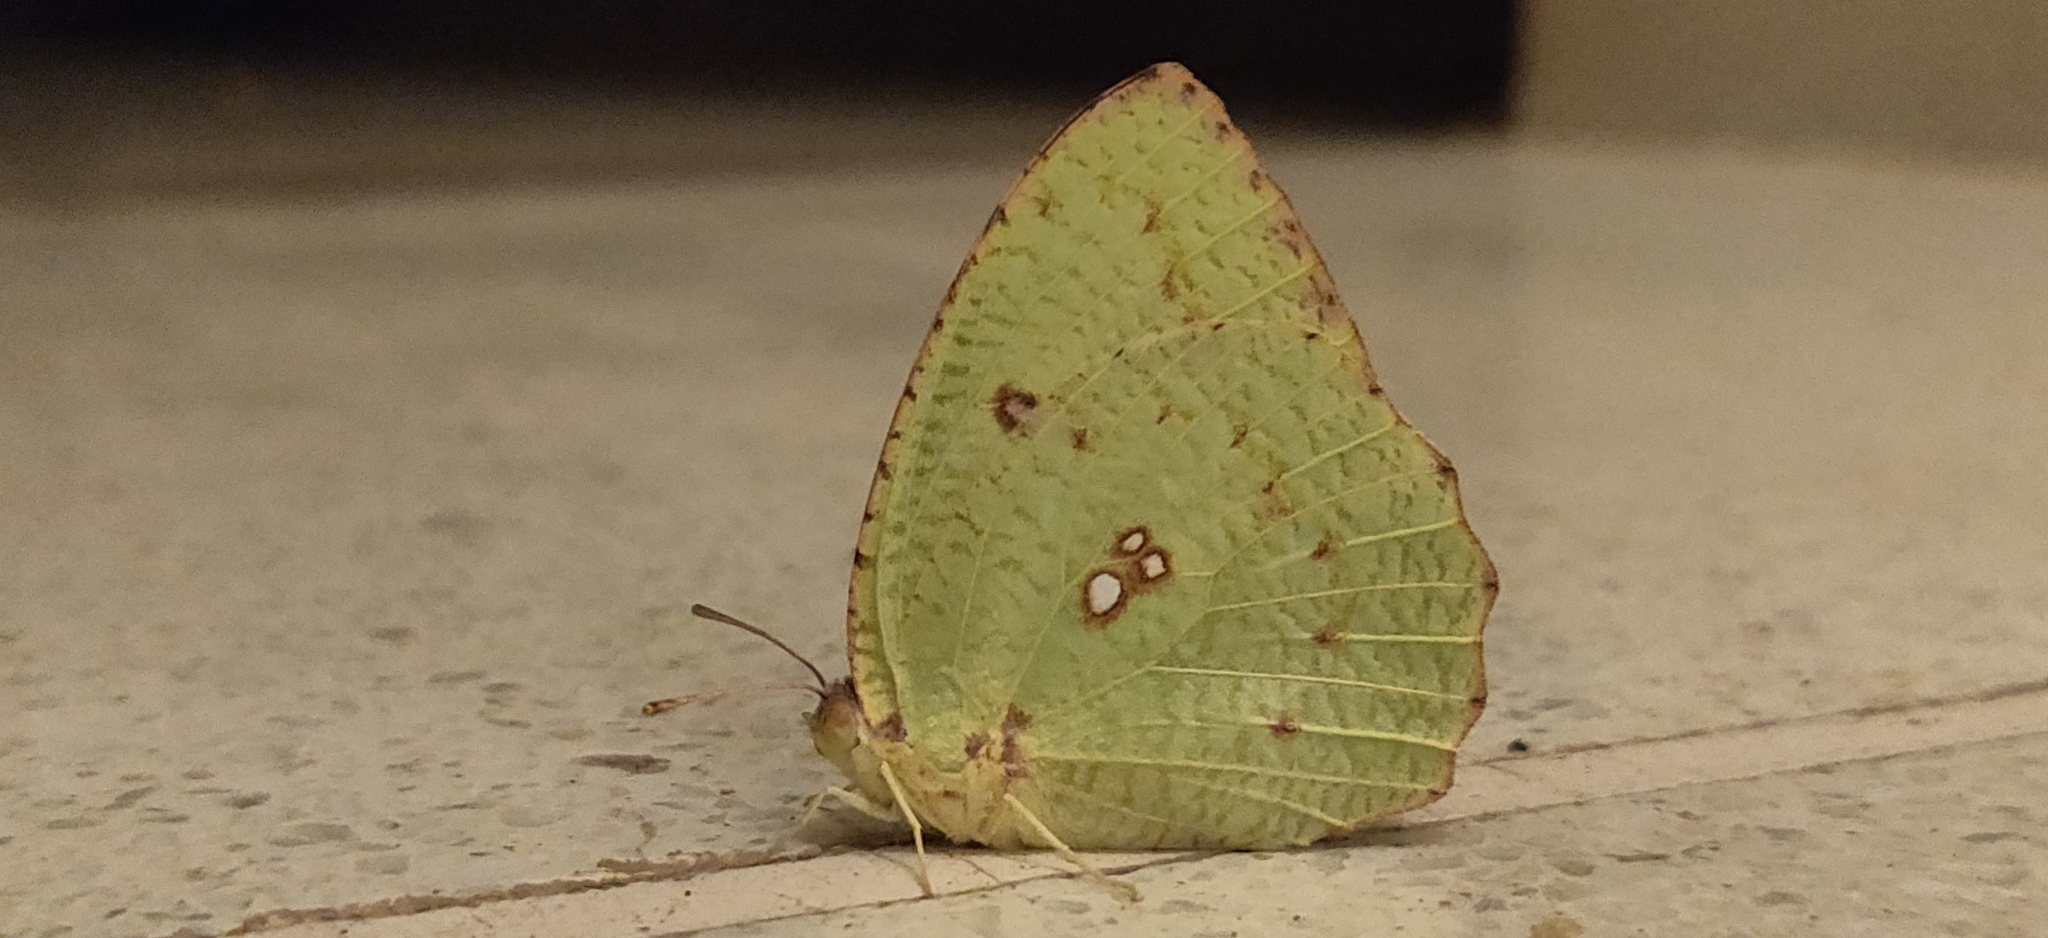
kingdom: Animalia
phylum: Arthropoda
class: Insecta
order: Lepidoptera
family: Pieridae
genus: Catopsilia
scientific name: Catopsilia pyranthe
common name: Mottled emigrant
